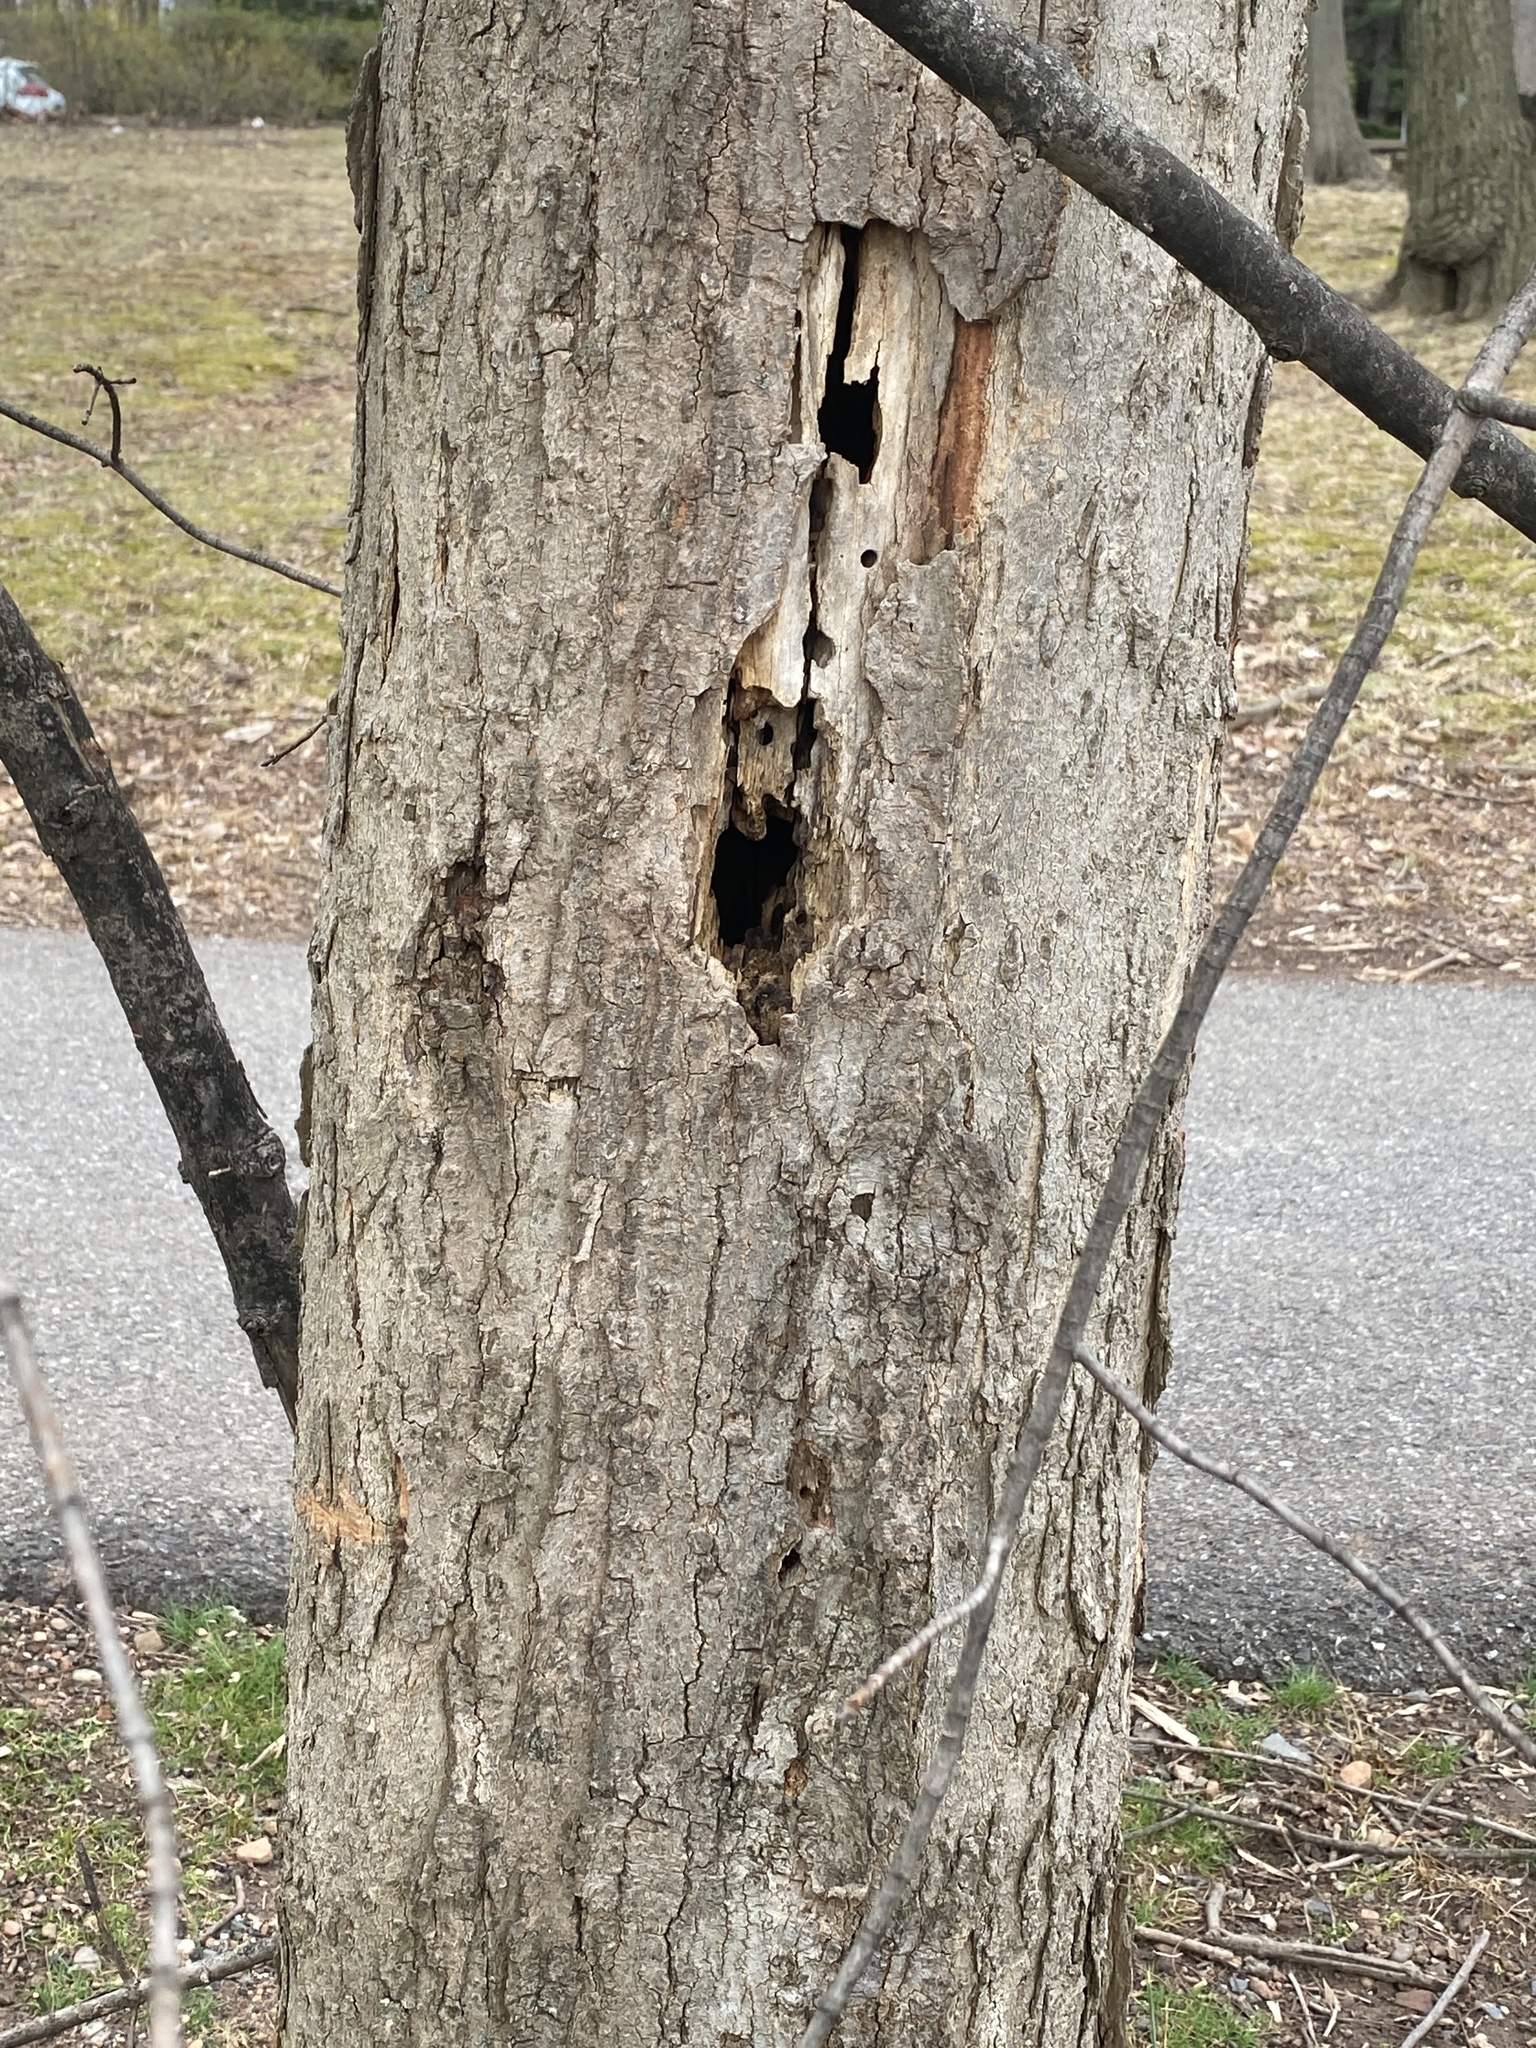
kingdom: Animalia
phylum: Chordata
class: Aves
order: Piciformes
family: Picidae
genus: Dryocopus
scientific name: Dryocopus pileatus
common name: Pileated woodpecker
